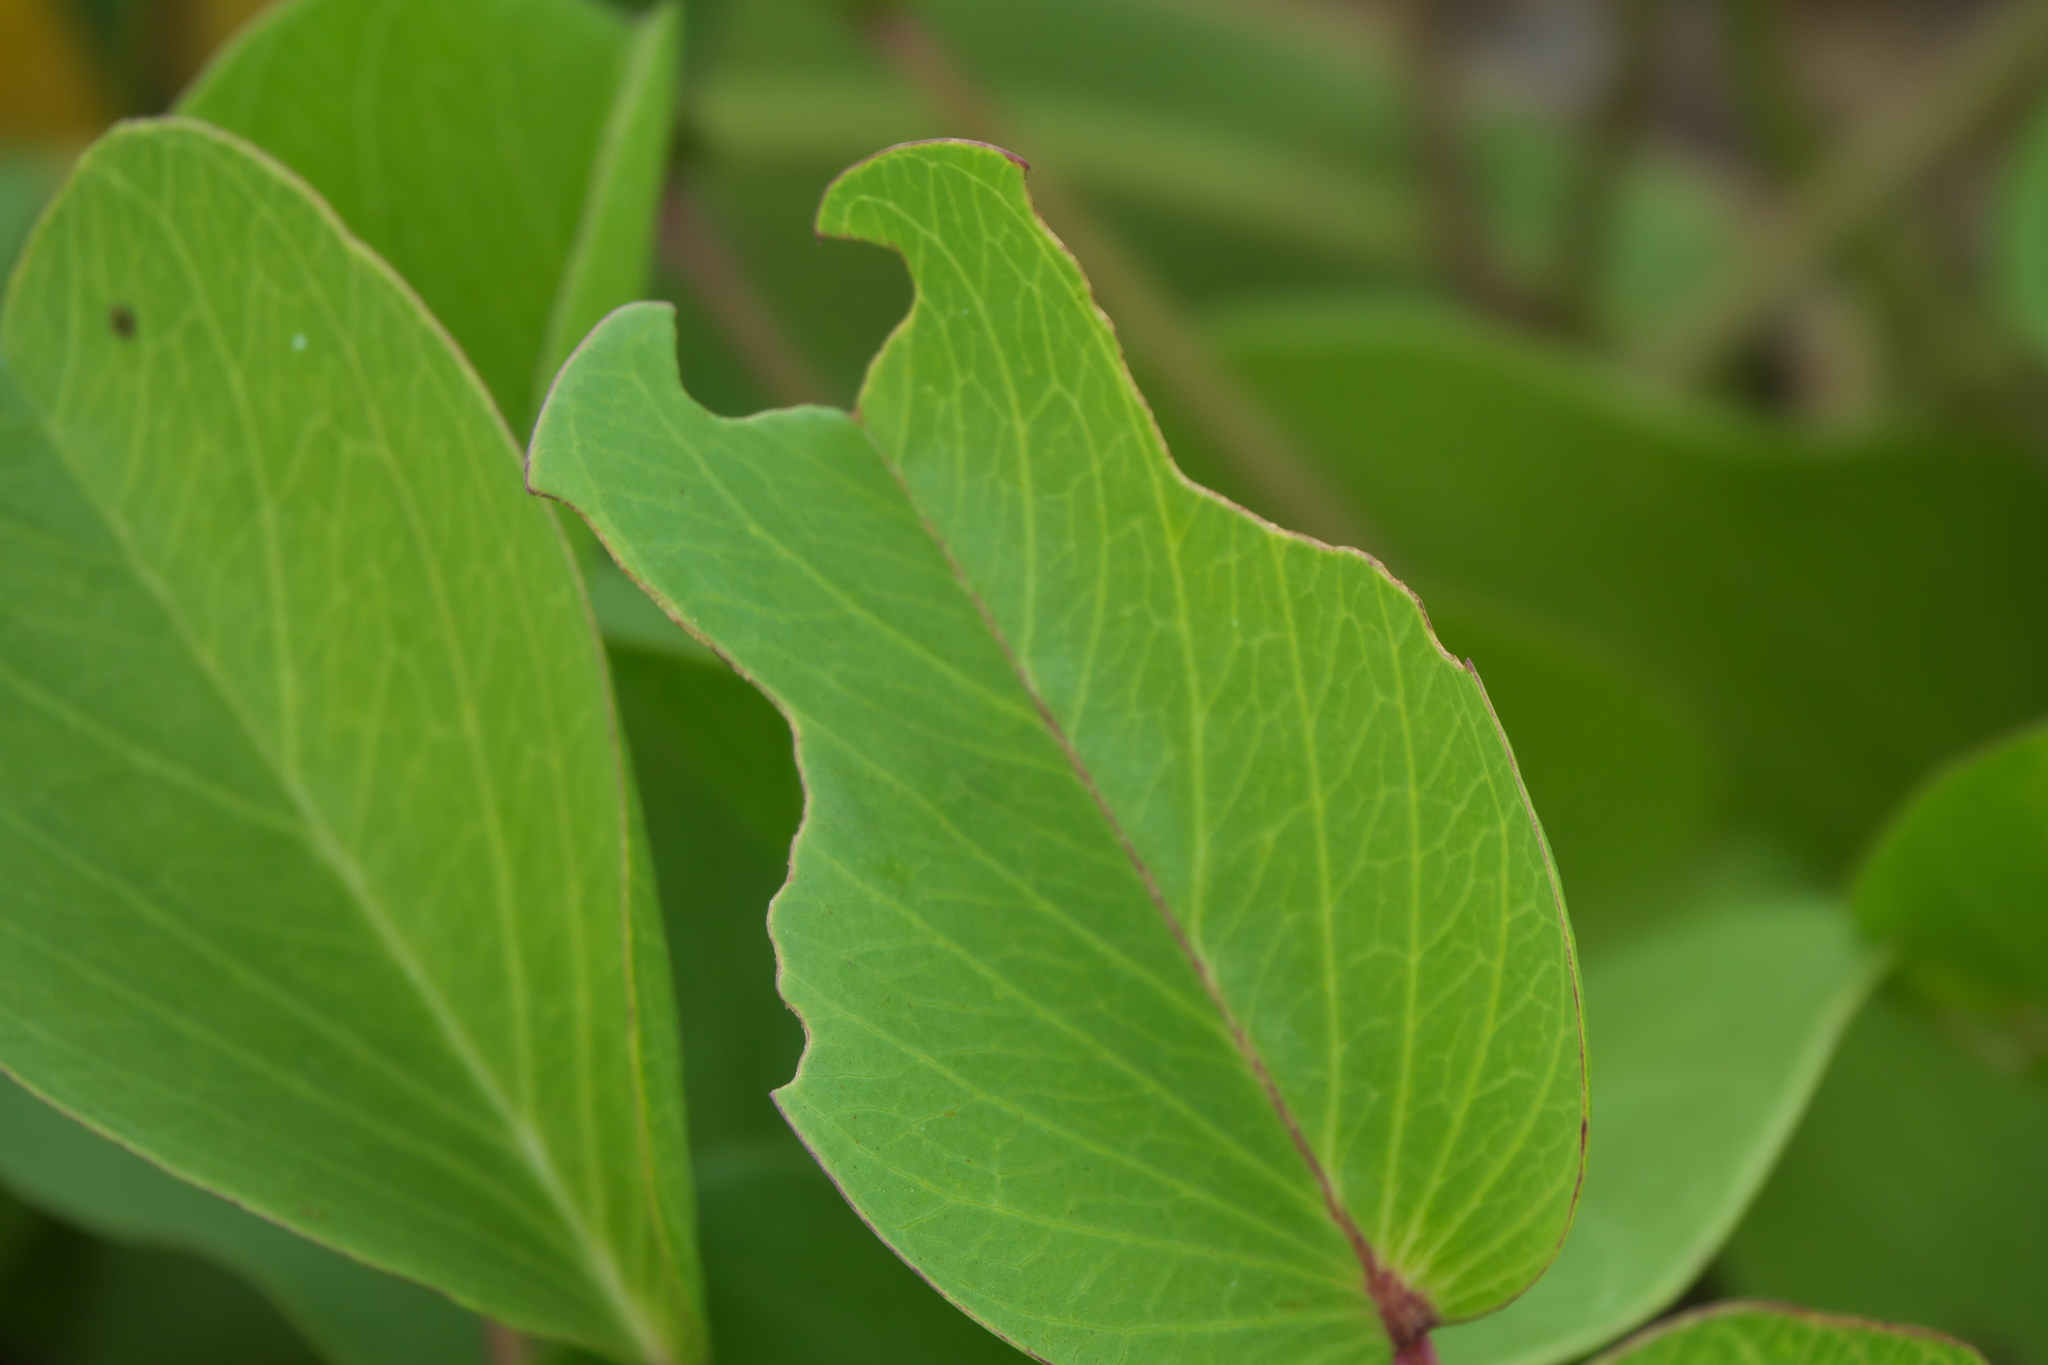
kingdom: Plantae
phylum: Tracheophyta
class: Magnoliopsida
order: Solanales
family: Convolvulaceae
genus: Ipomoea
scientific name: Ipomoea pes-caprae
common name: Beach morning glory
